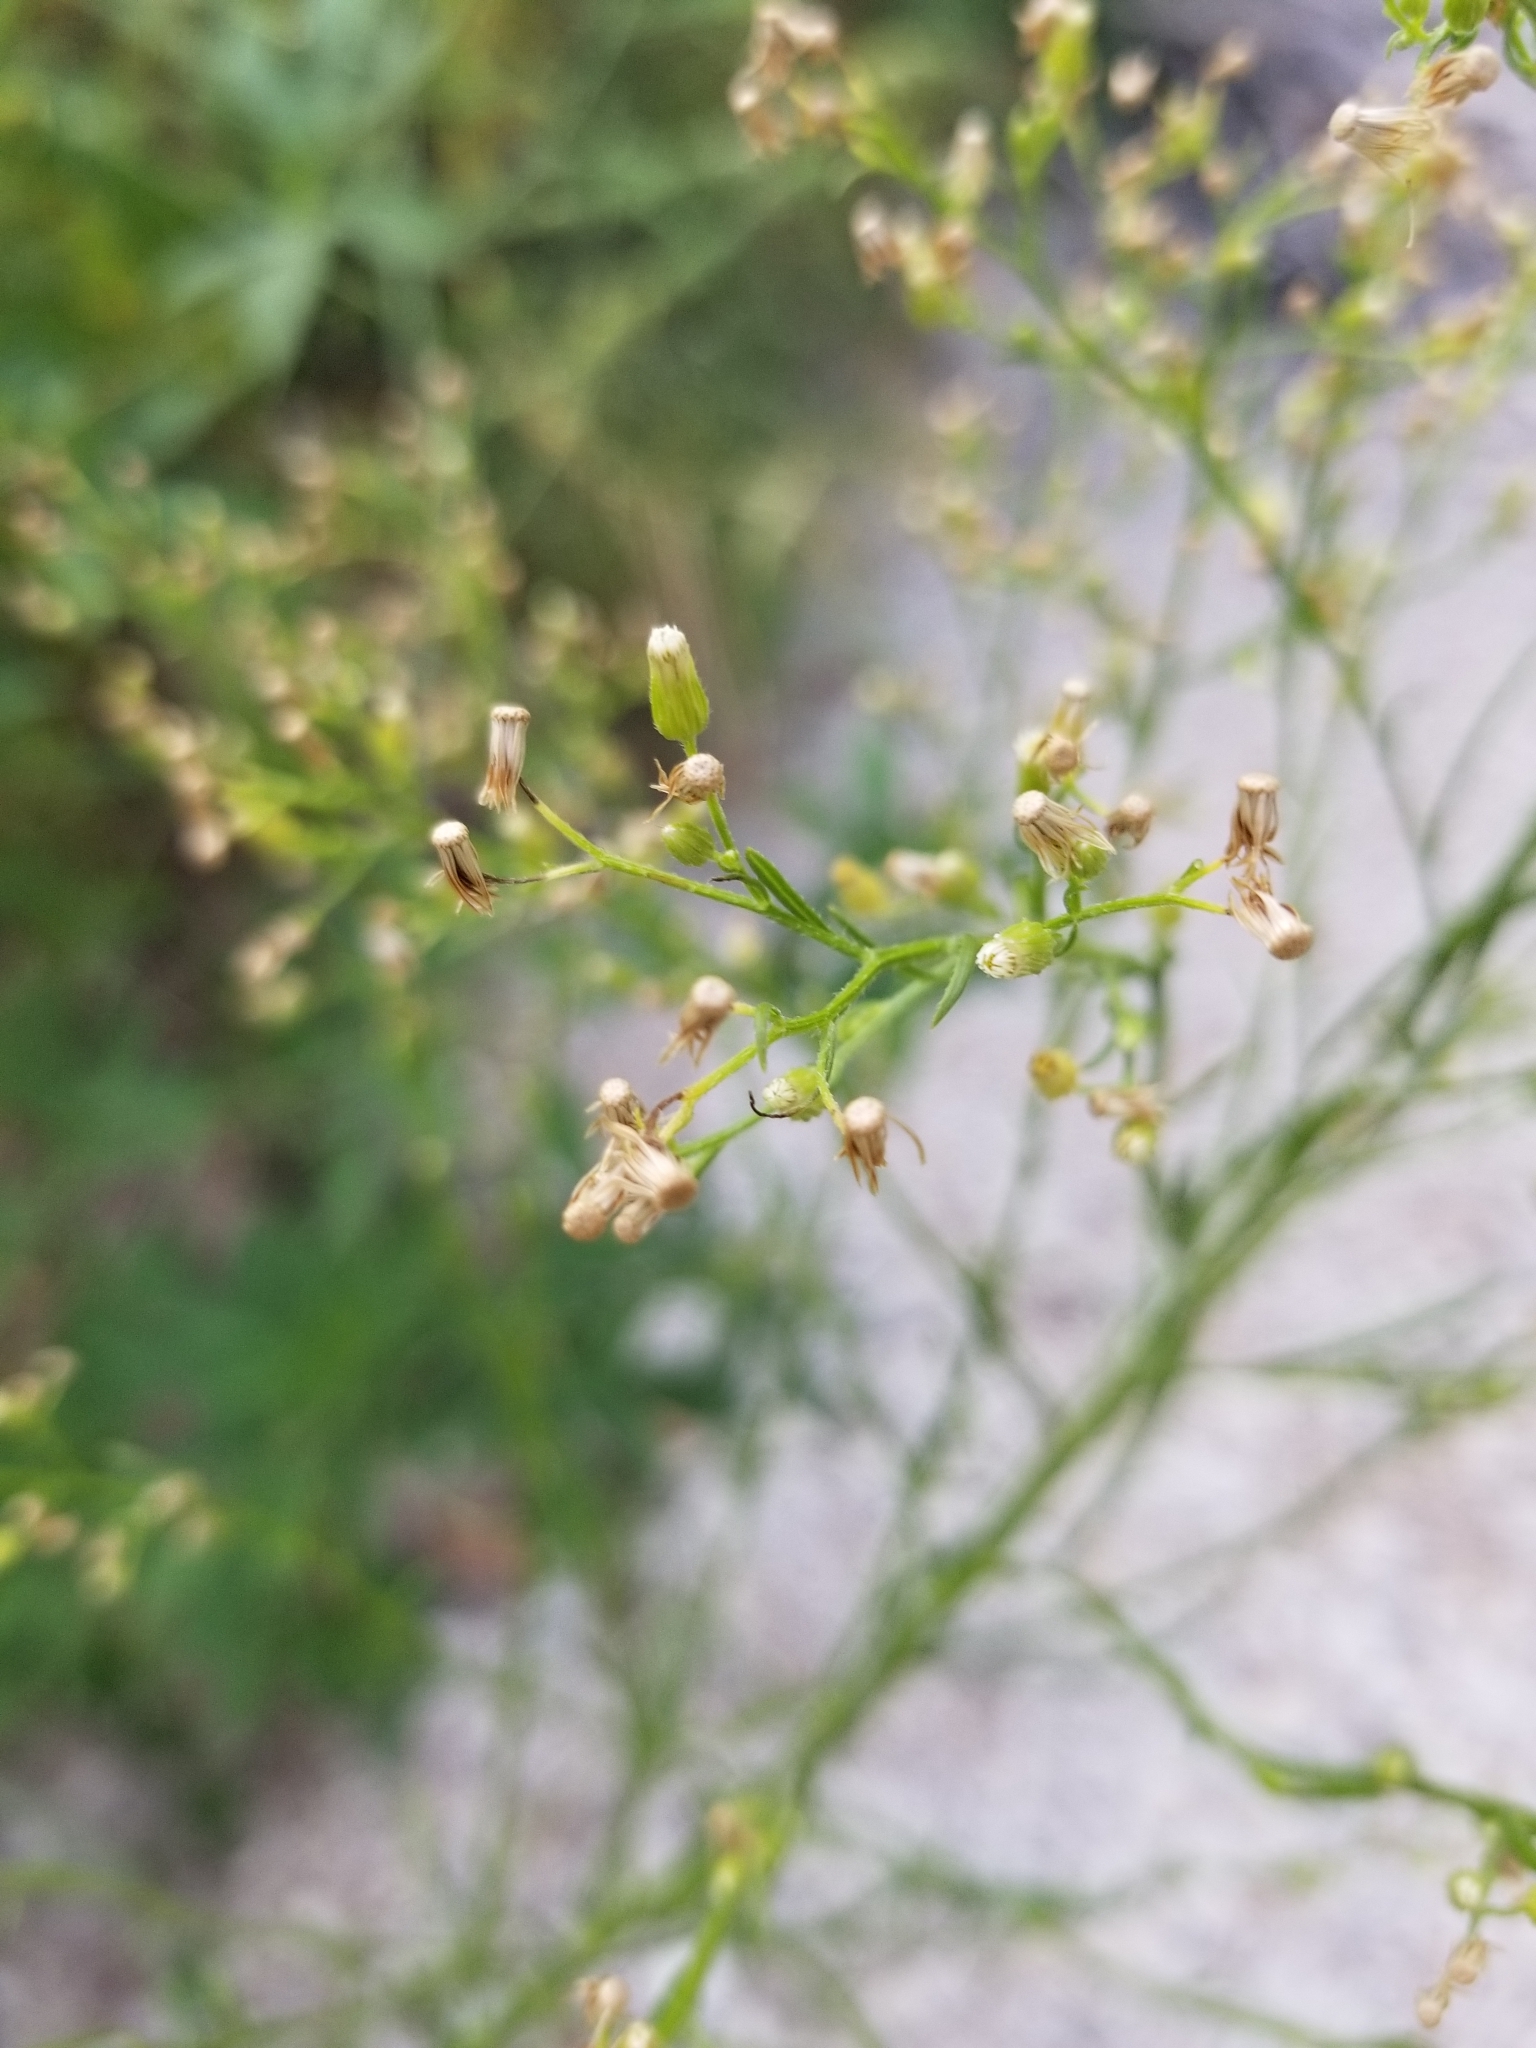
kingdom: Plantae
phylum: Tracheophyta
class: Magnoliopsida
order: Asterales
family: Asteraceae
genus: Erigeron
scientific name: Erigeron canadensis
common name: Canadian fleabane
